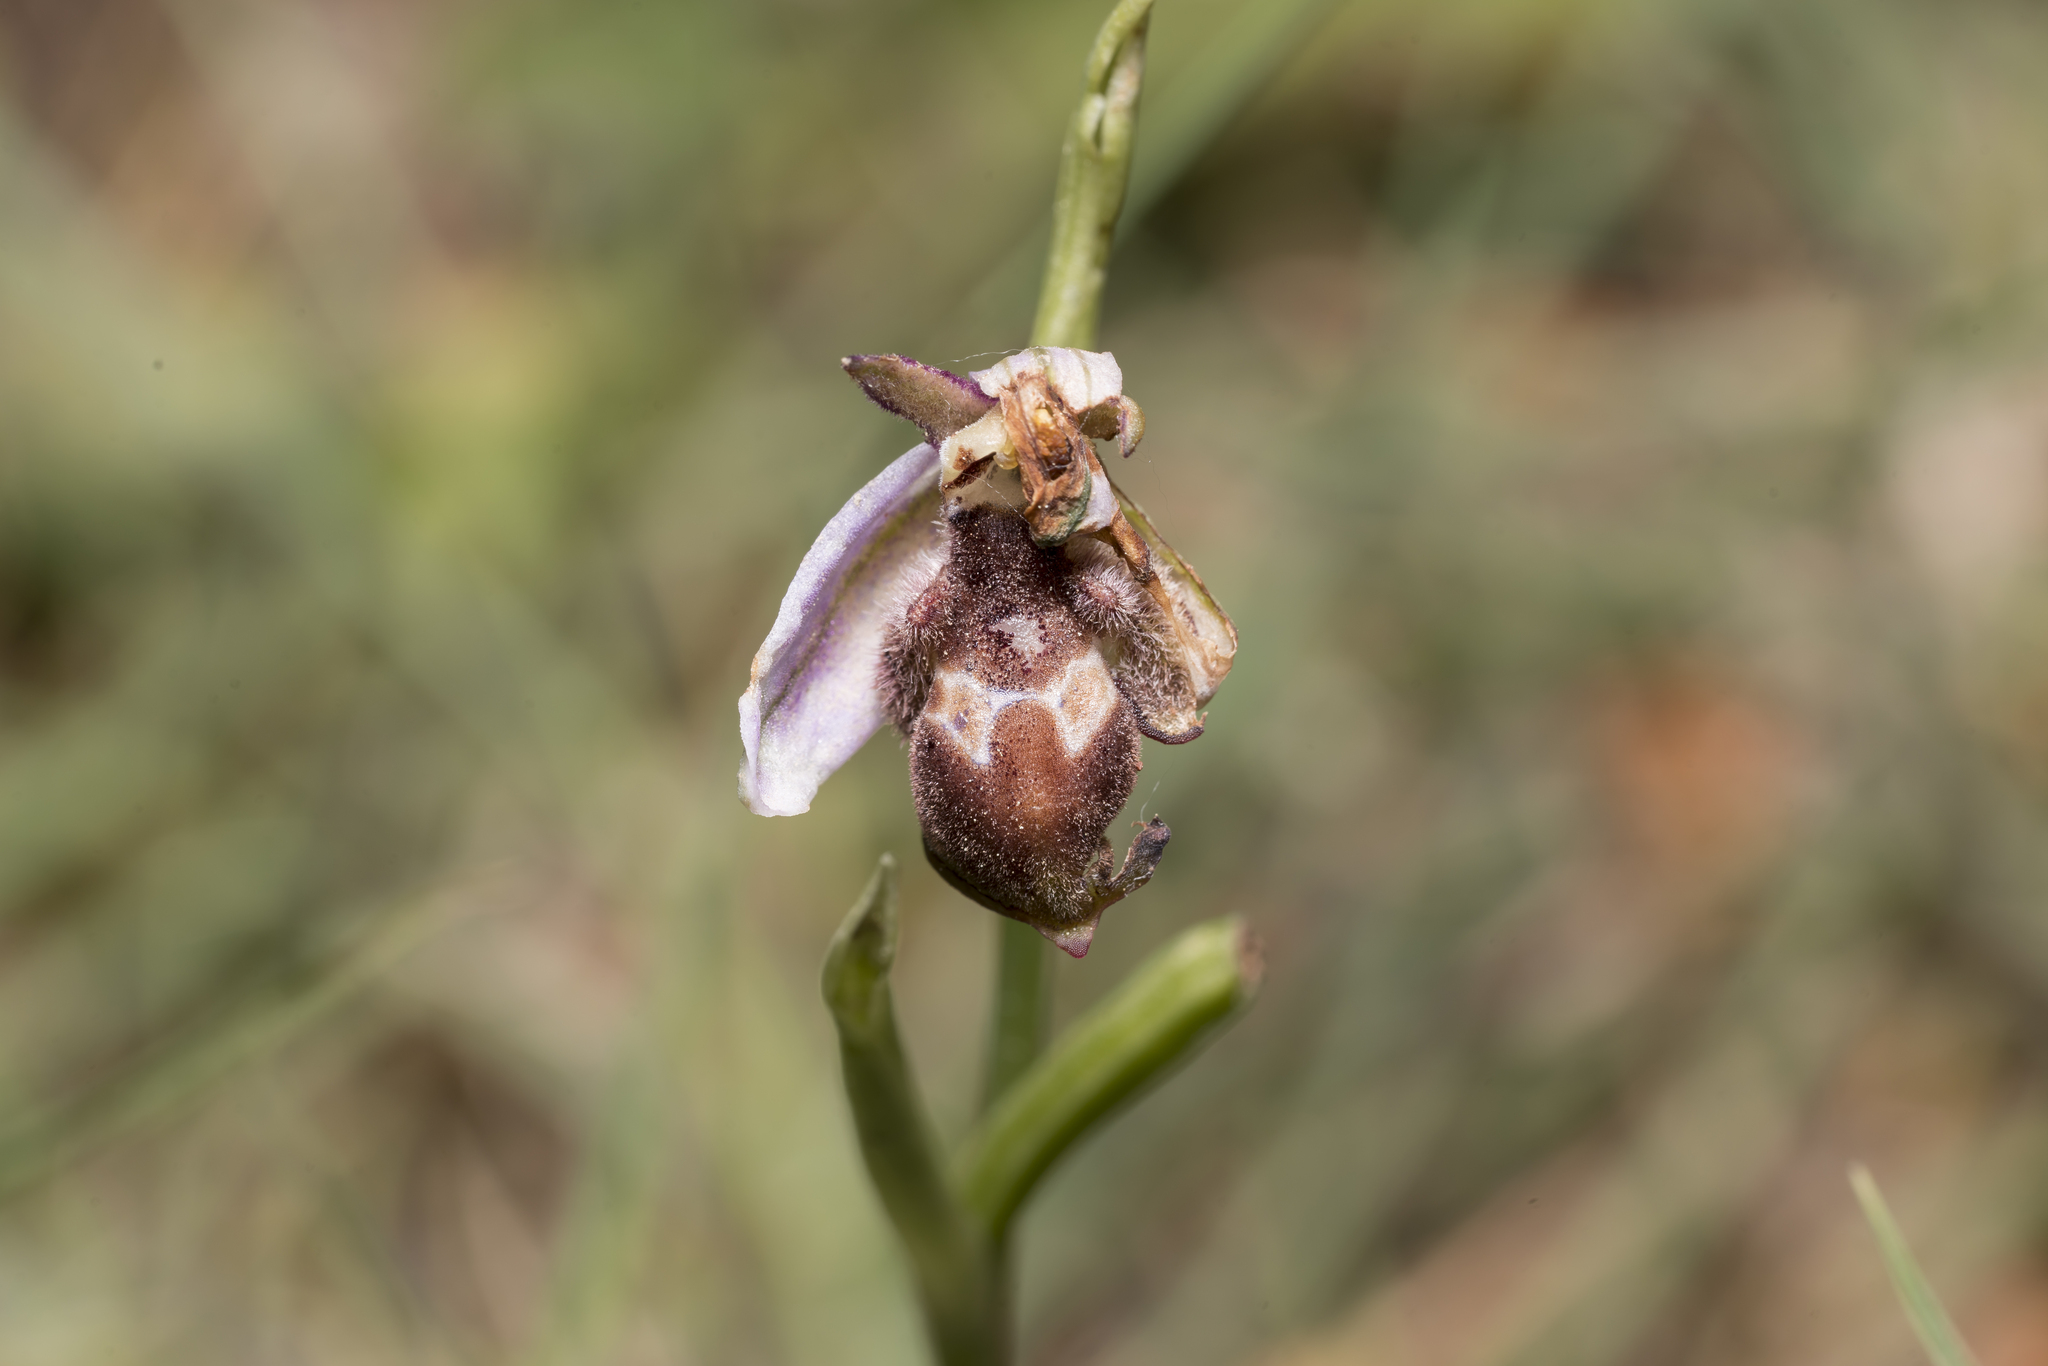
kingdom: Plantae
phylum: Tracheophyta
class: Liliopsida
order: Asparagales
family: Orchidaceae
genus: Ophrys
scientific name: Ophrys reinholdii
